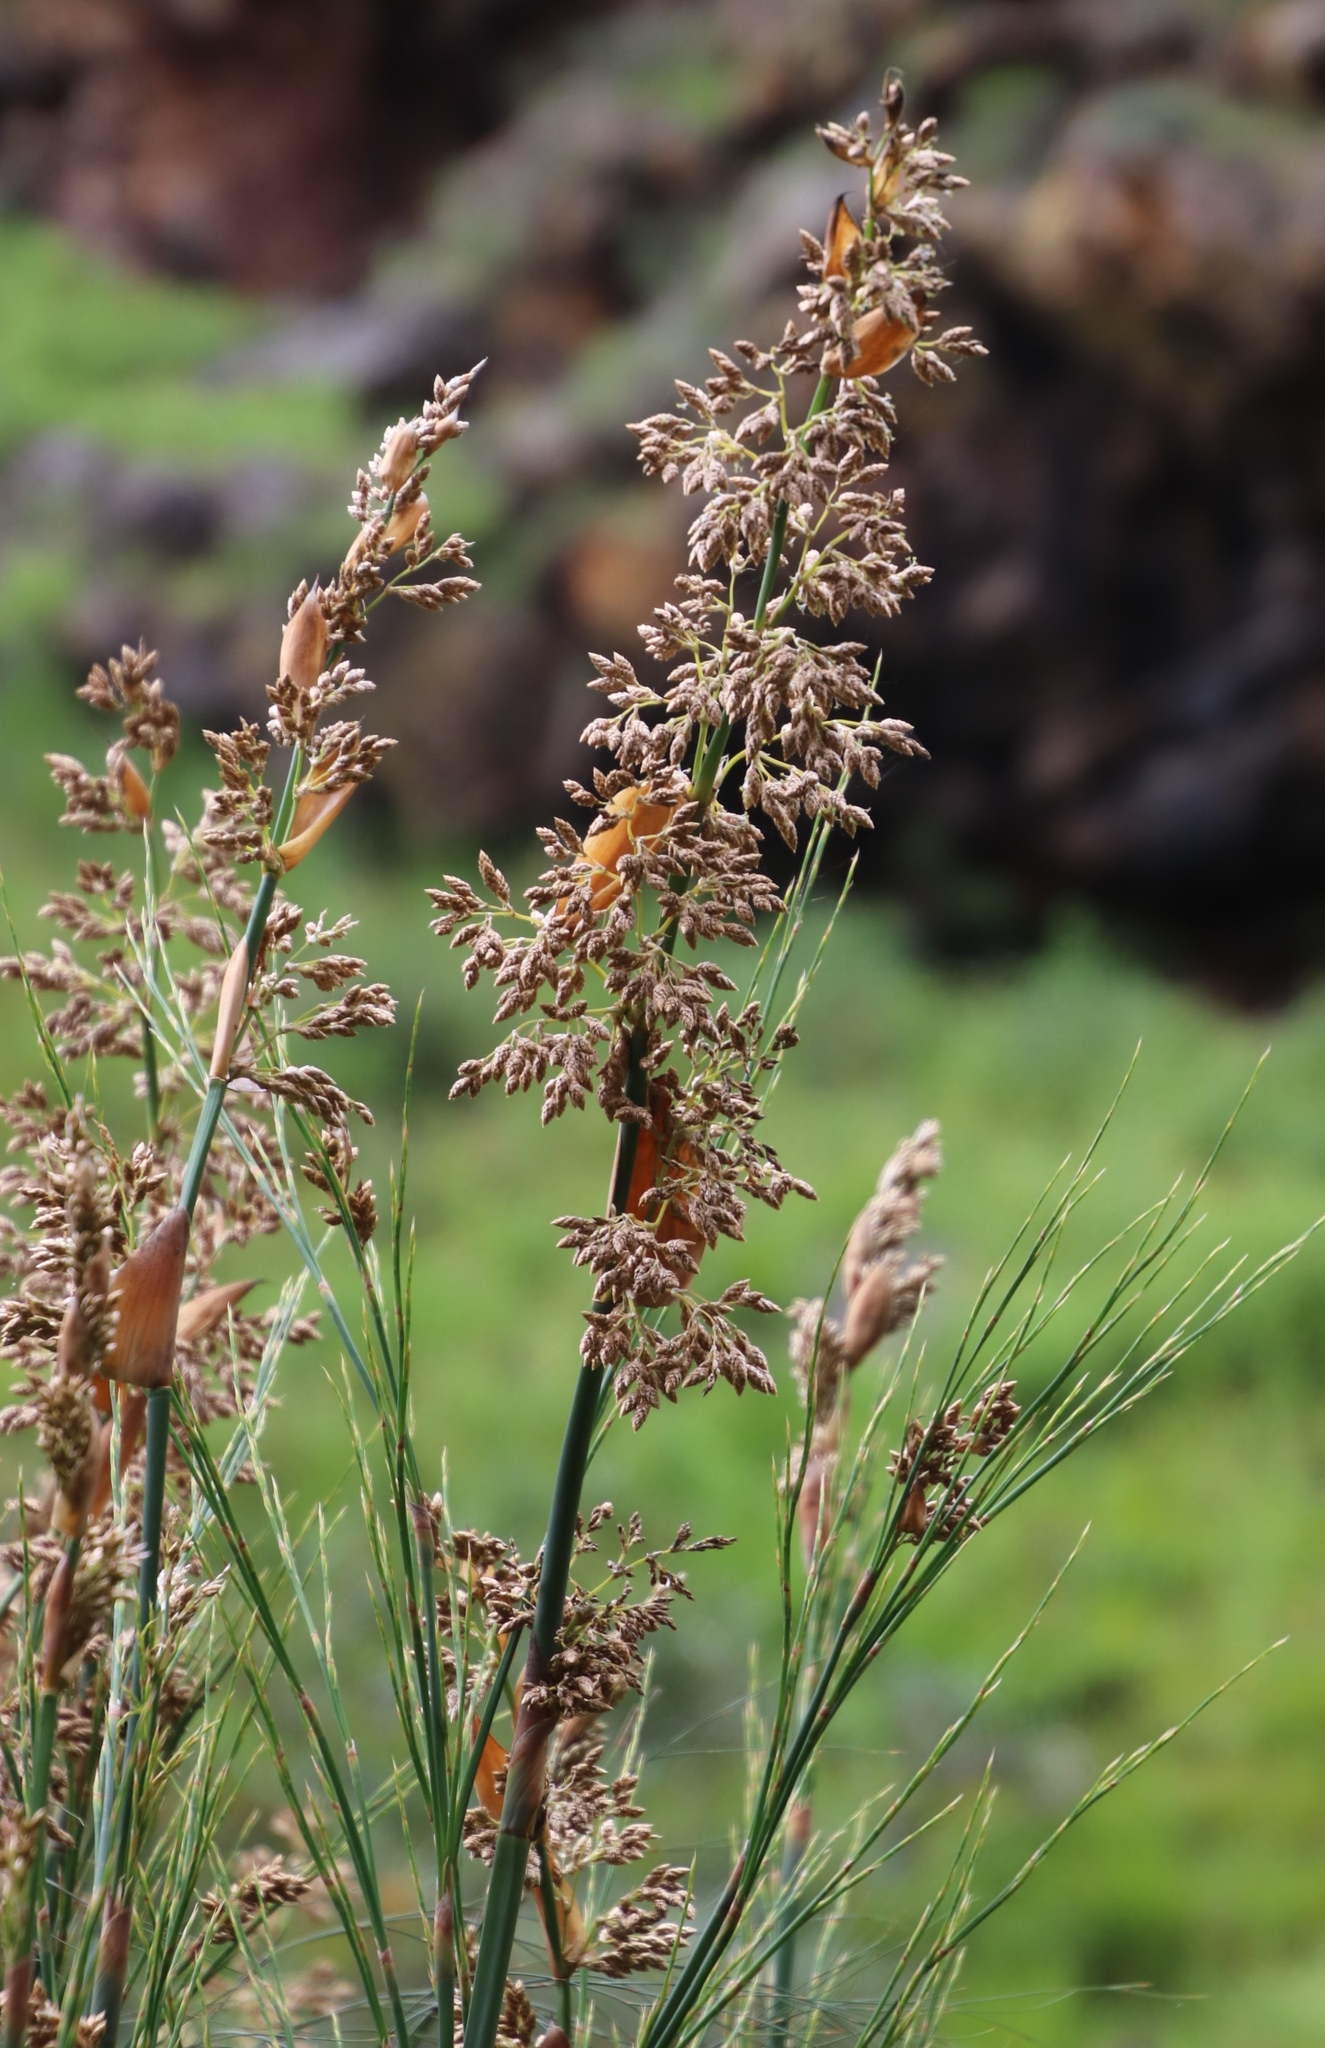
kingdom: Plantae
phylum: Tracheophyta
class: Liliopsida
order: Poales
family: Restionaceae
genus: Cannomois
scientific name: Cannomois grandis
